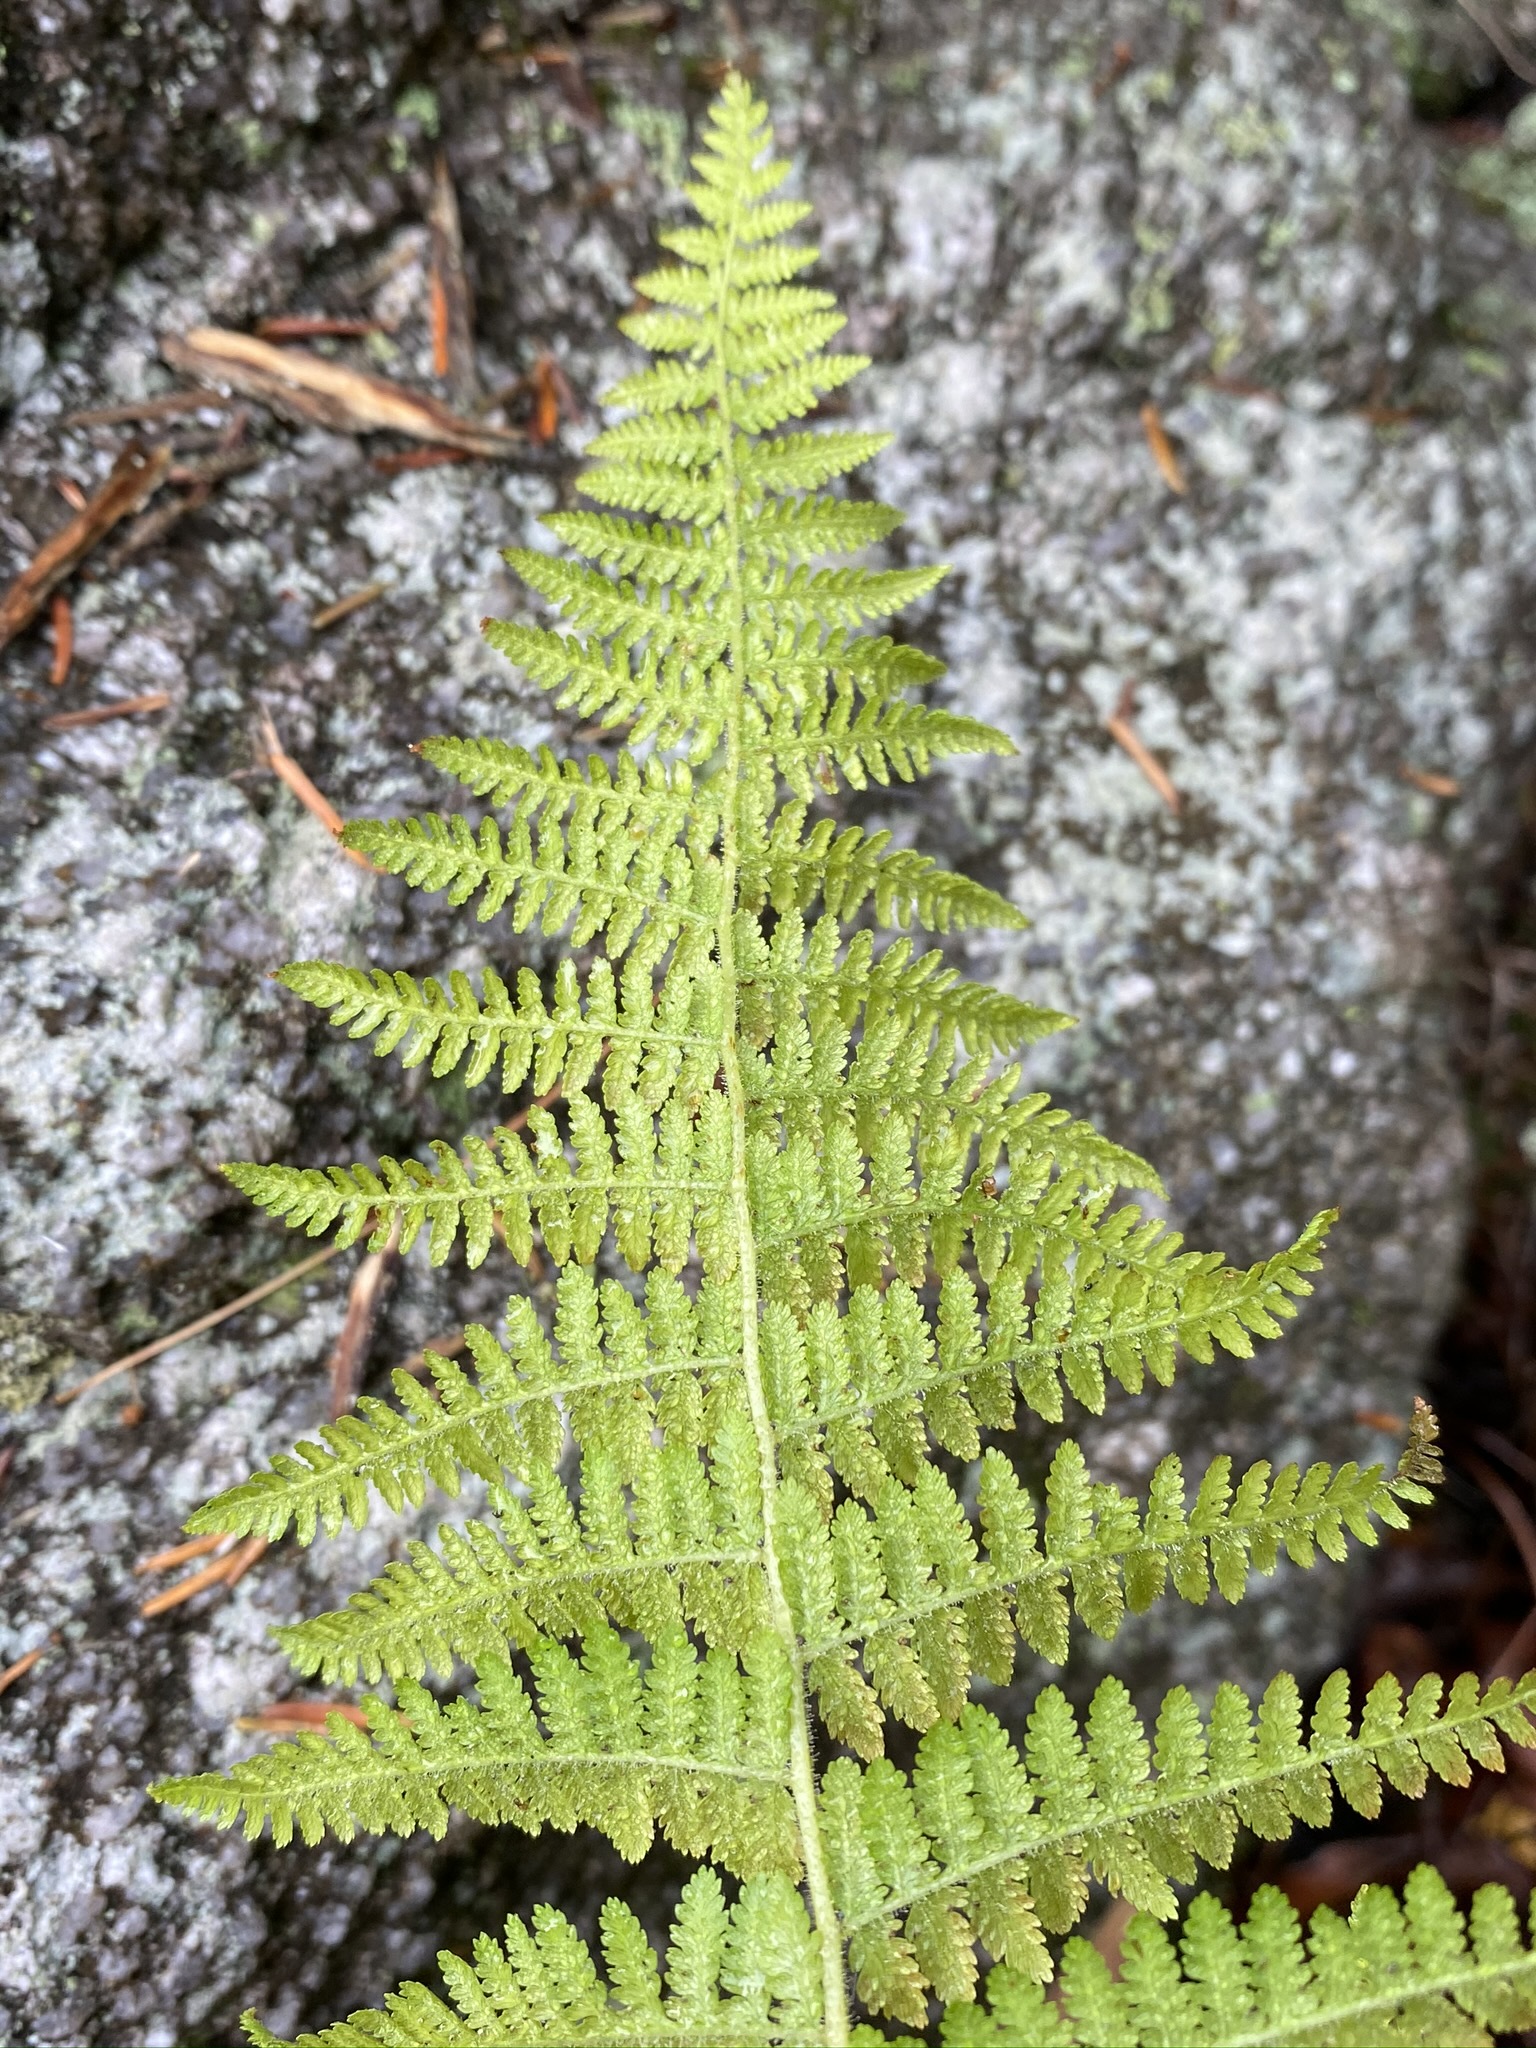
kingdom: Plantae
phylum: Tracheophyta
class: Polypodiopsida
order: Polypodiales
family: Dennstaedtiaceae
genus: Sitobolium
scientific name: Sitobolium punctilobum
